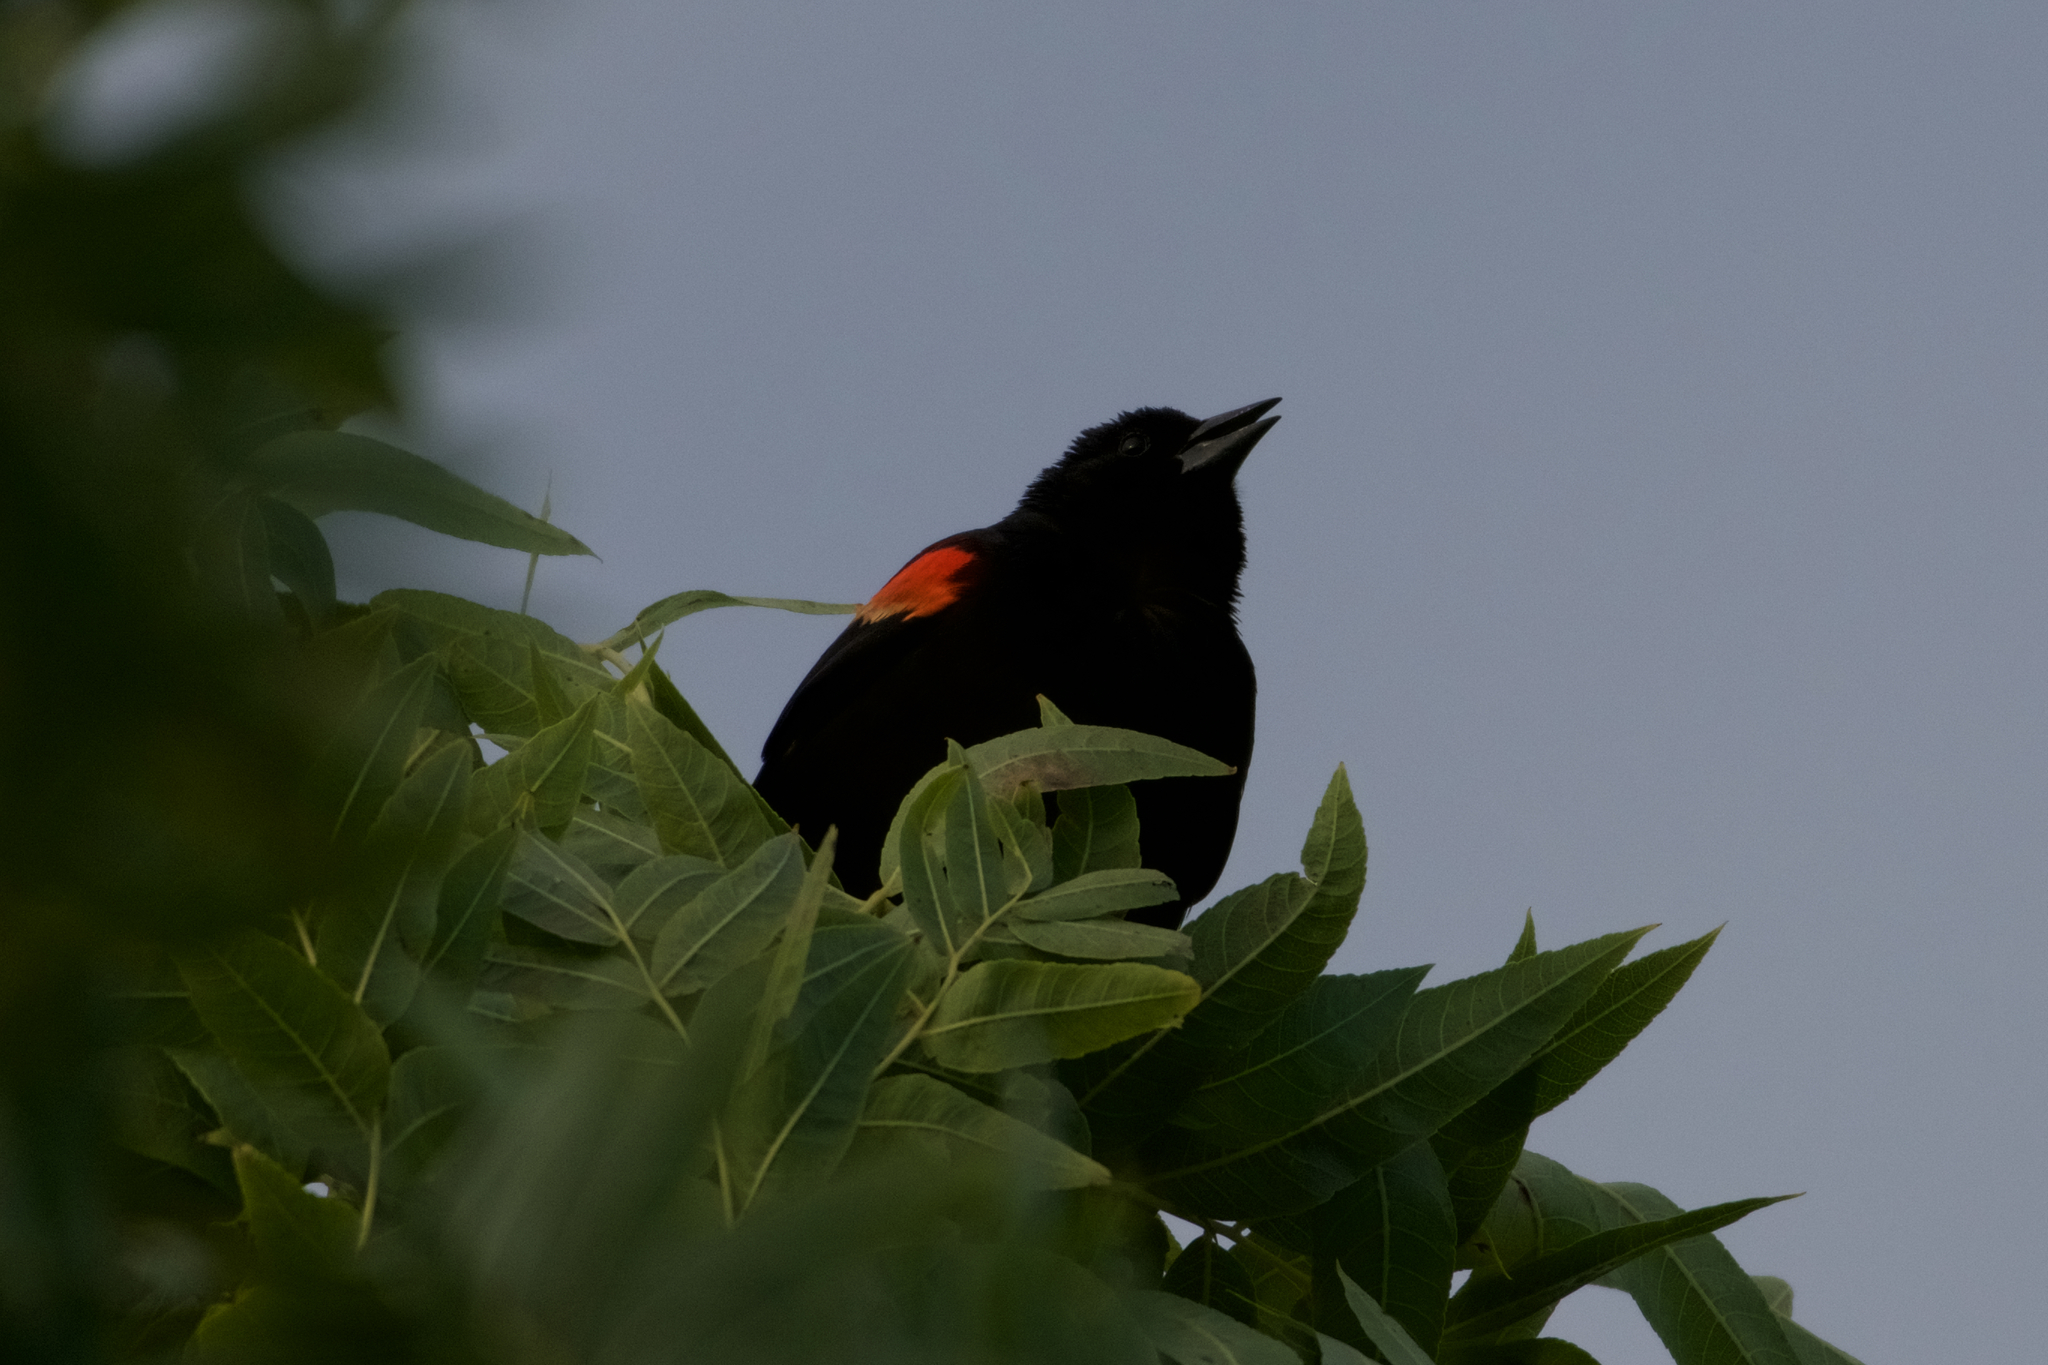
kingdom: Animalia
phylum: Chordata
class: Aves
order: Passeriformes
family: Icteridae
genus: Agelaius
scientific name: Agelaius phoeniceus
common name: Red-winged blackbird
